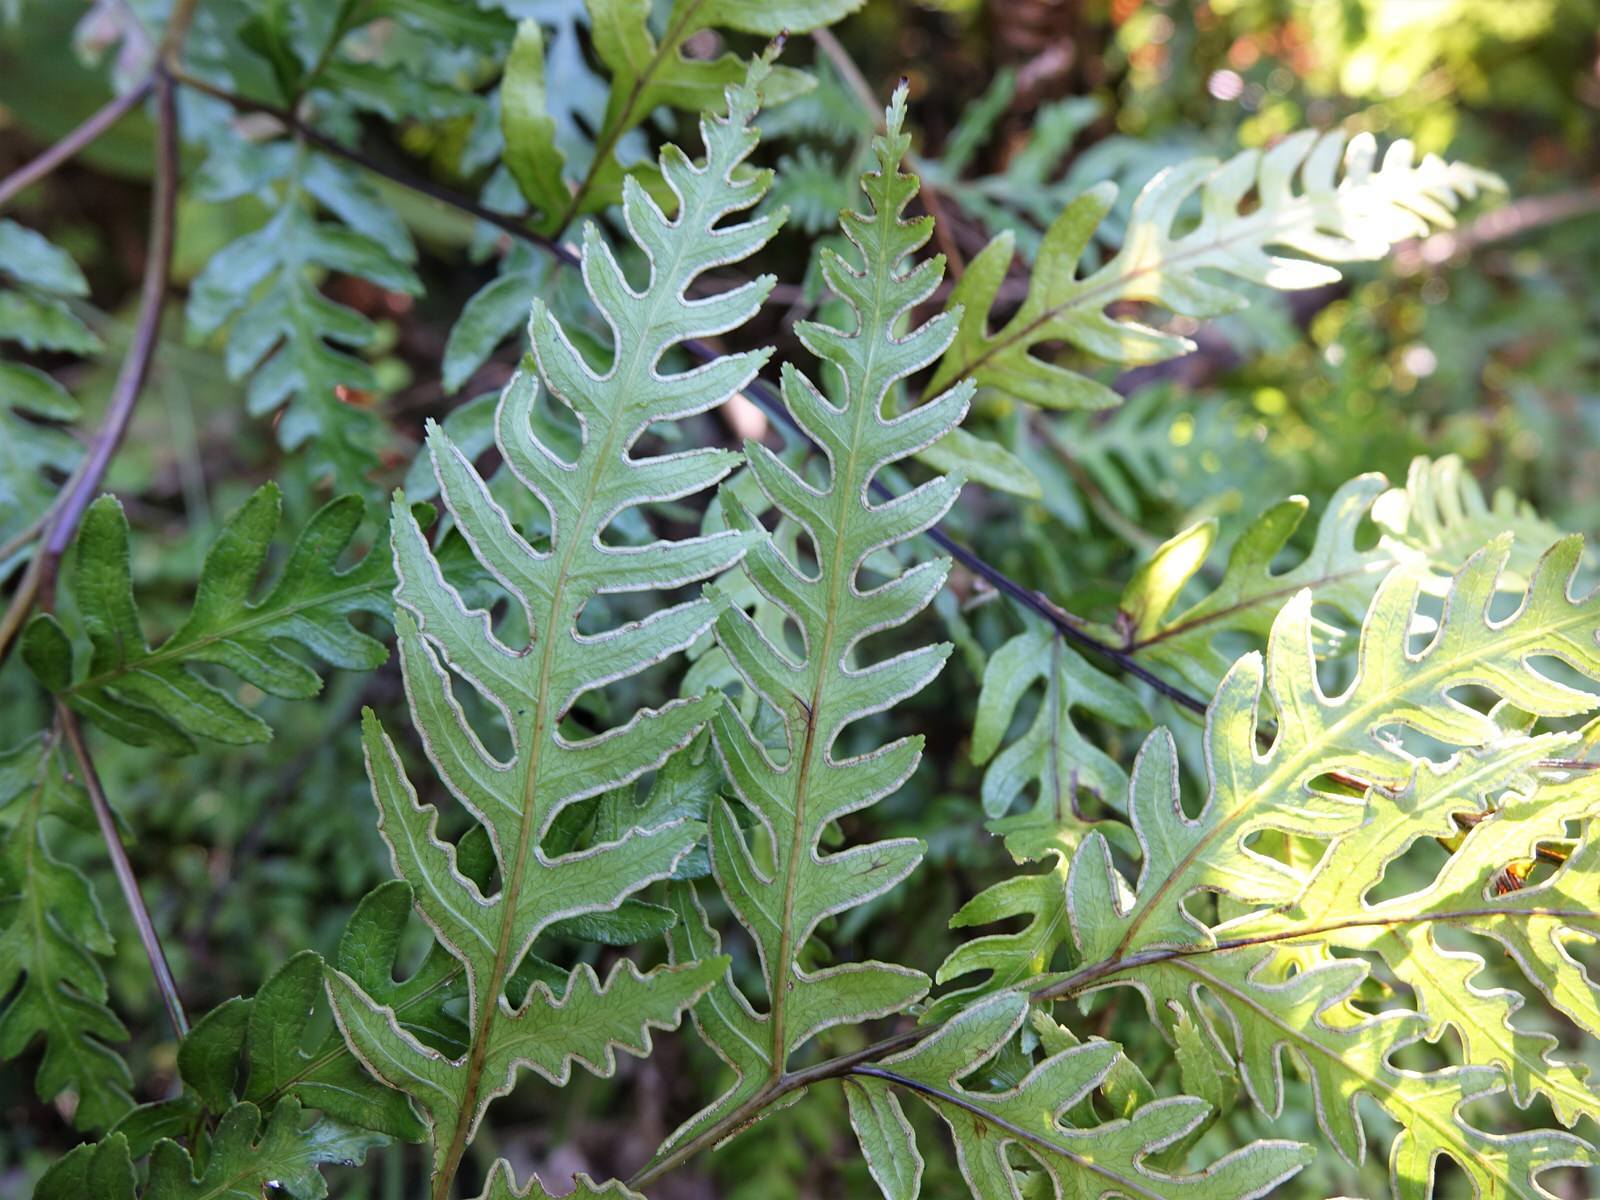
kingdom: Plantae
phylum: Tracheophyta
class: Polypodiopsida
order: Polypodiales
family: Pteridaceae
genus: Pteris
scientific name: Pteris carsei
